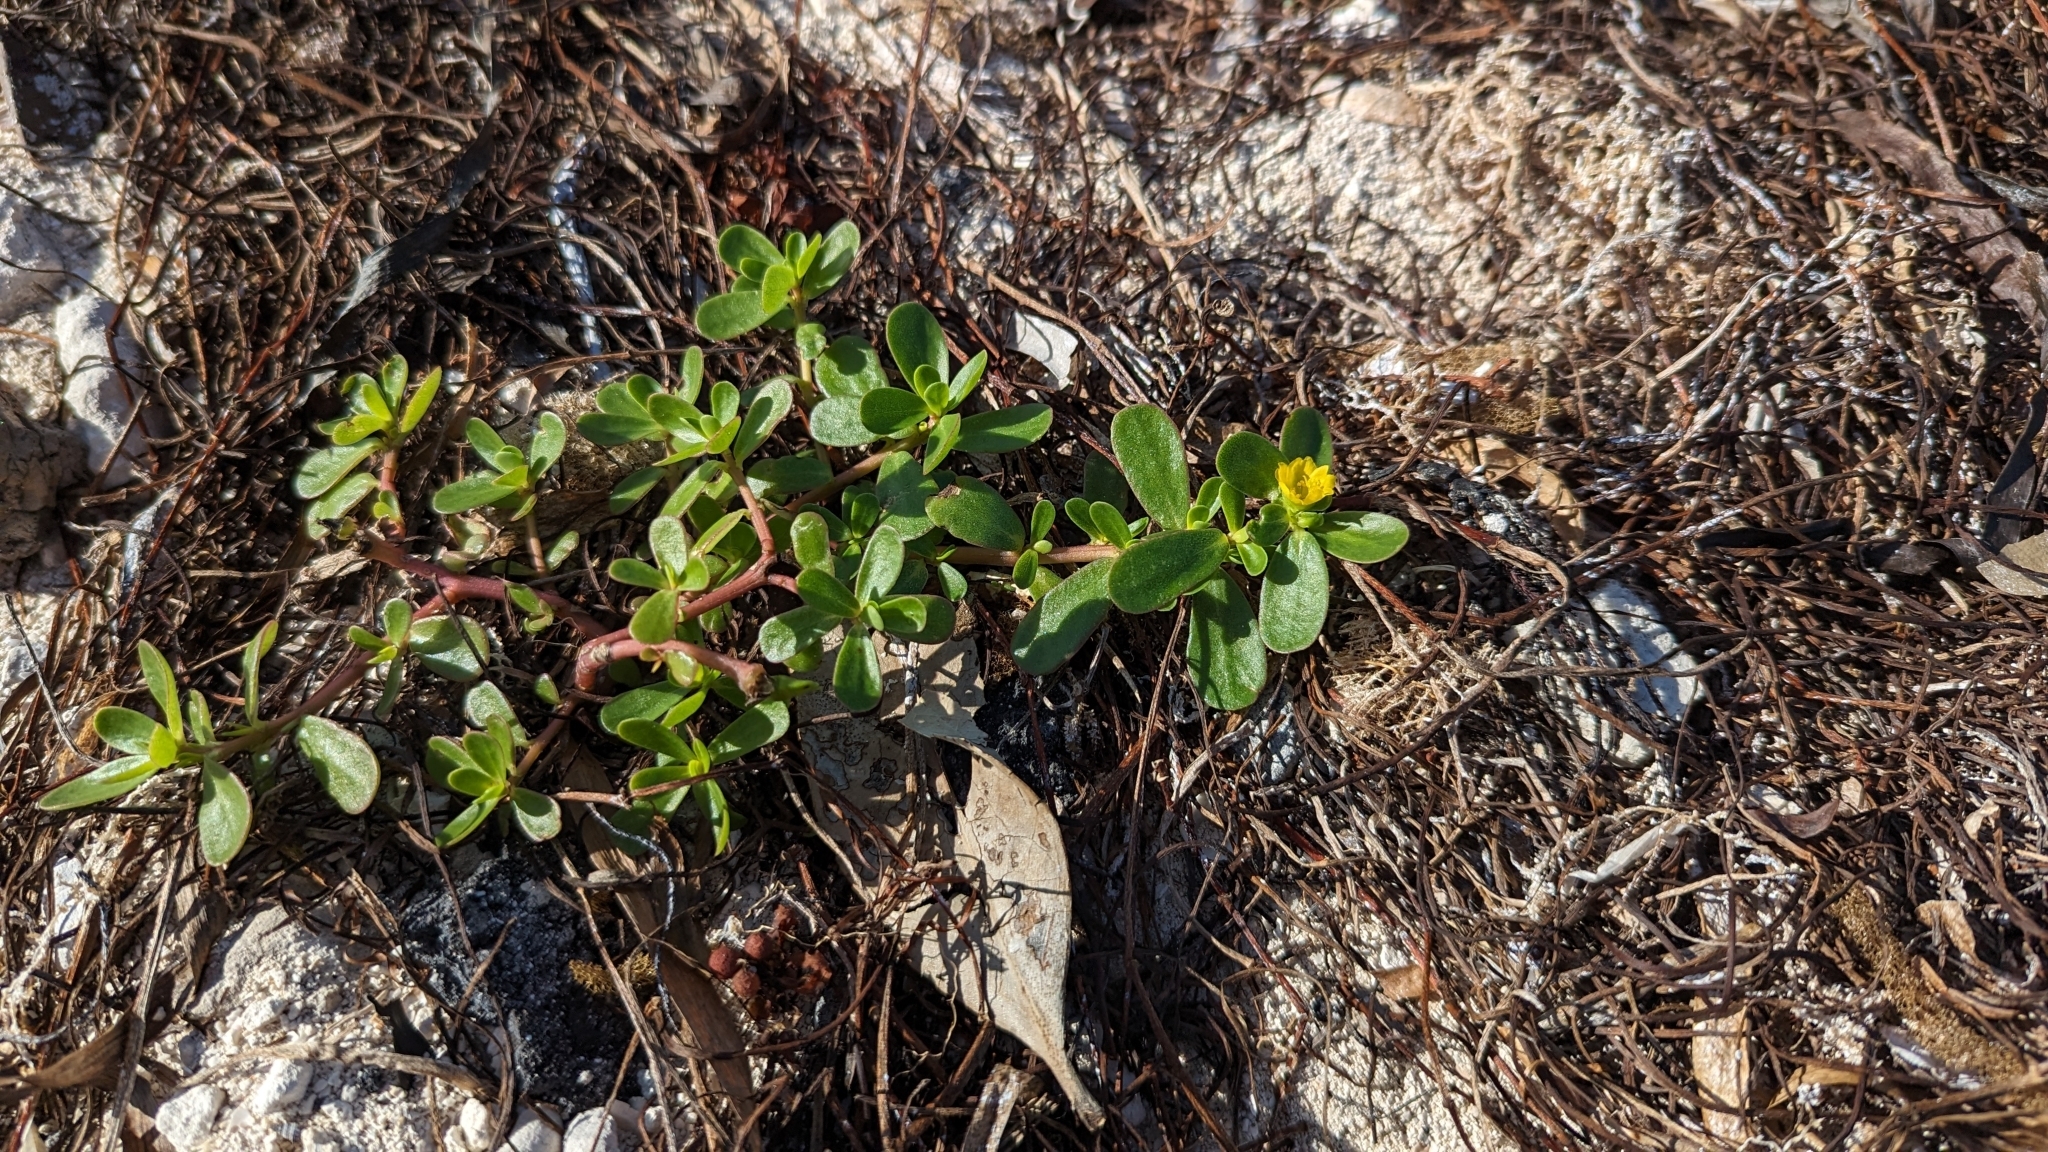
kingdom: Plantae
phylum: Tracheophyta
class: Magnoliopsida
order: Caryophyllales
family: Portulacaceae
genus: Portulaca
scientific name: Portulaca oleracea
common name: Common purslane
